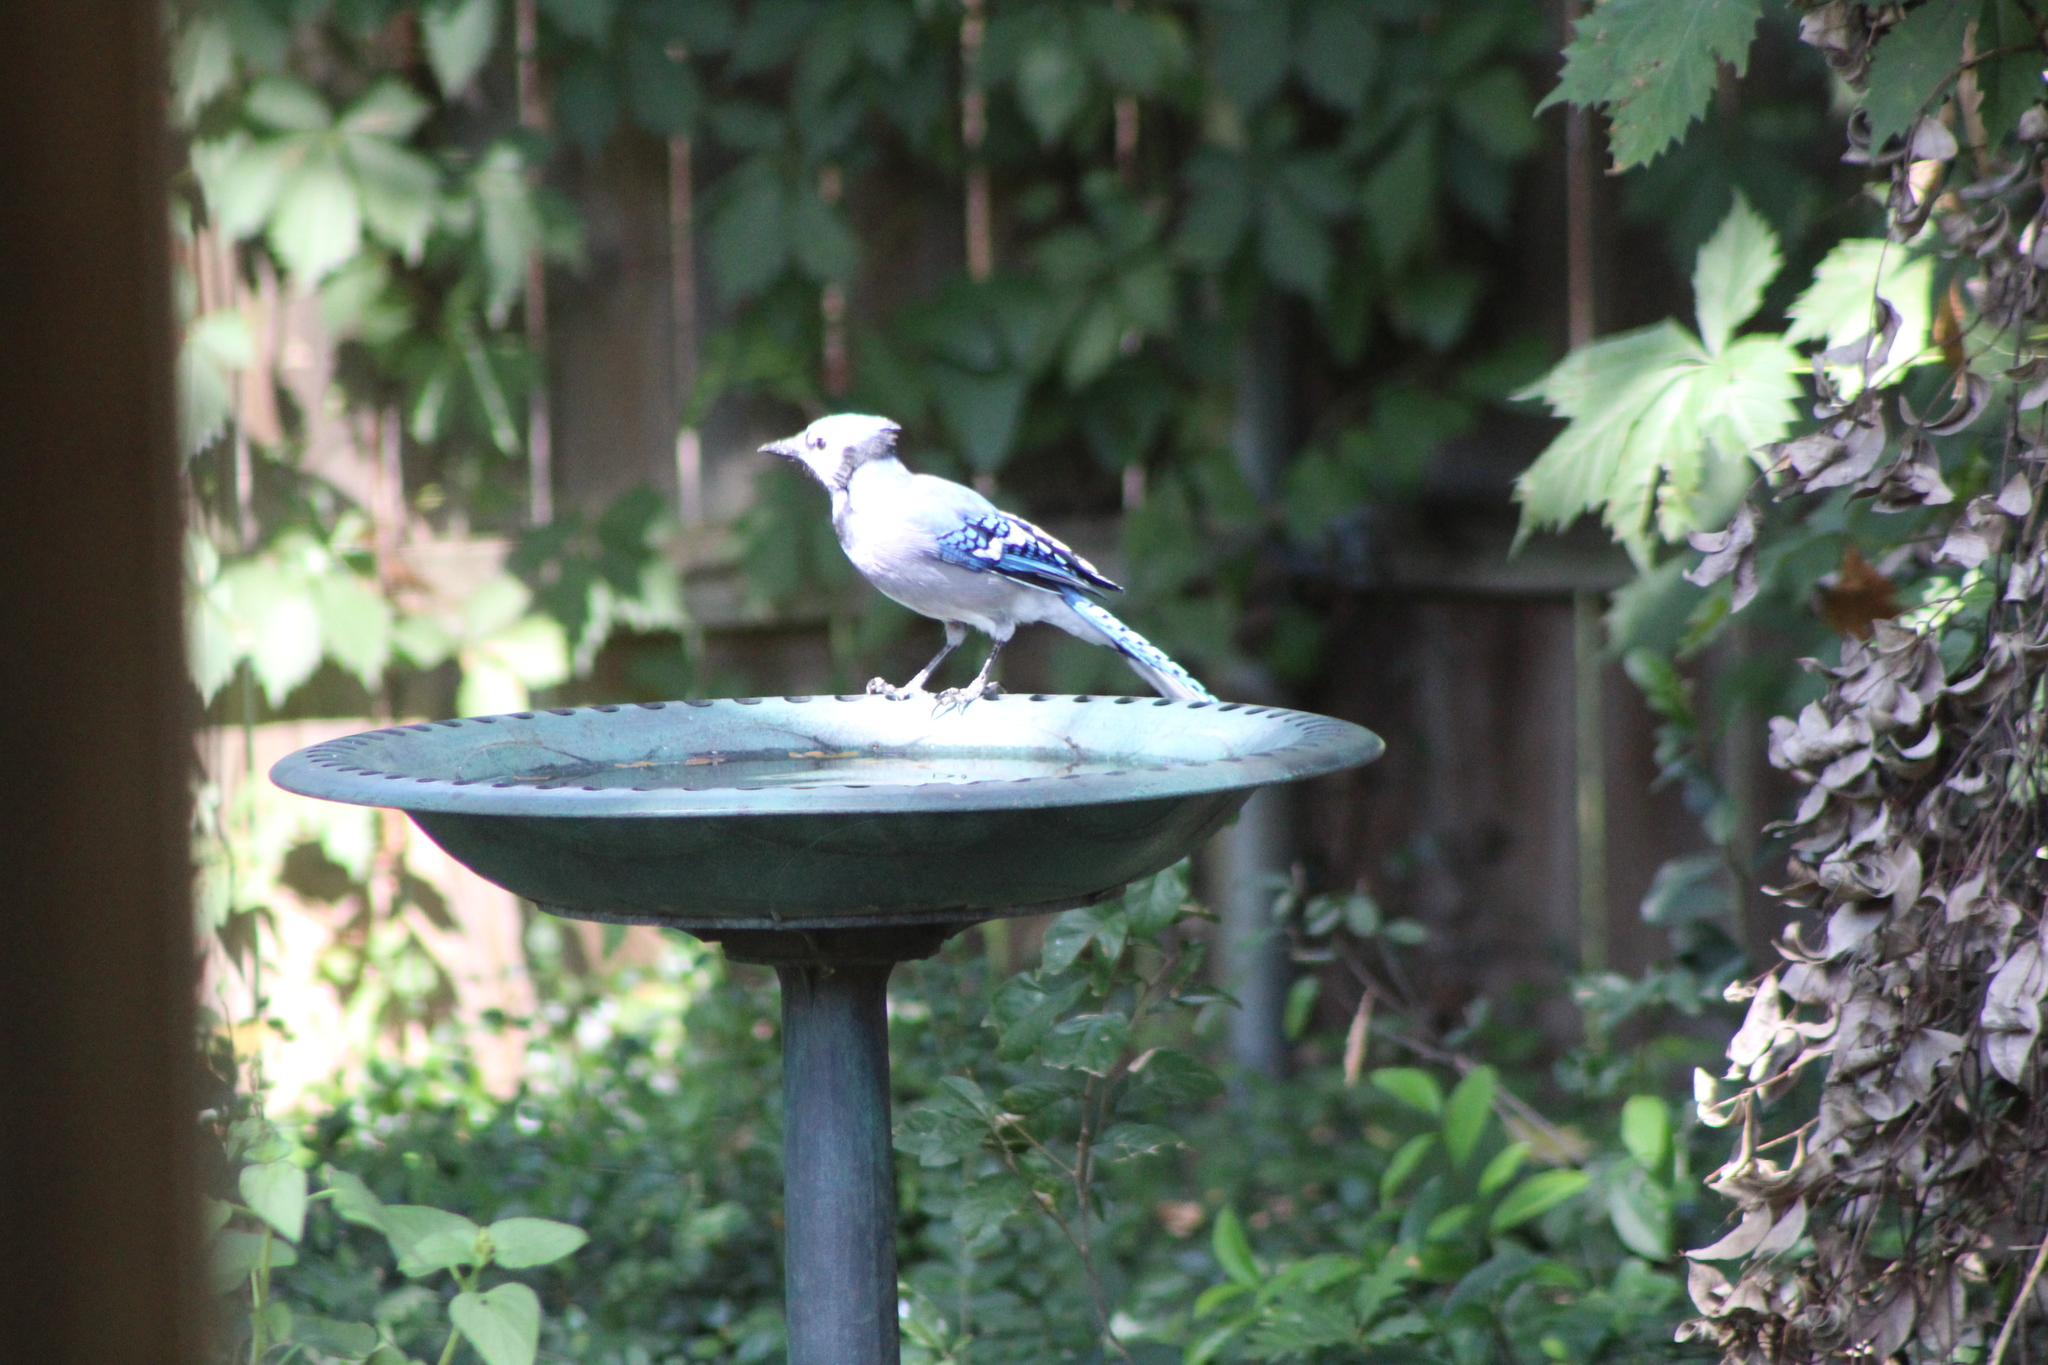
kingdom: Animalia
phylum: Chordata
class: Aves
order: Passeriformes
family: Corvidae
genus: Cyanocitta
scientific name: Cyanocitta cristata
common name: Blue jay
